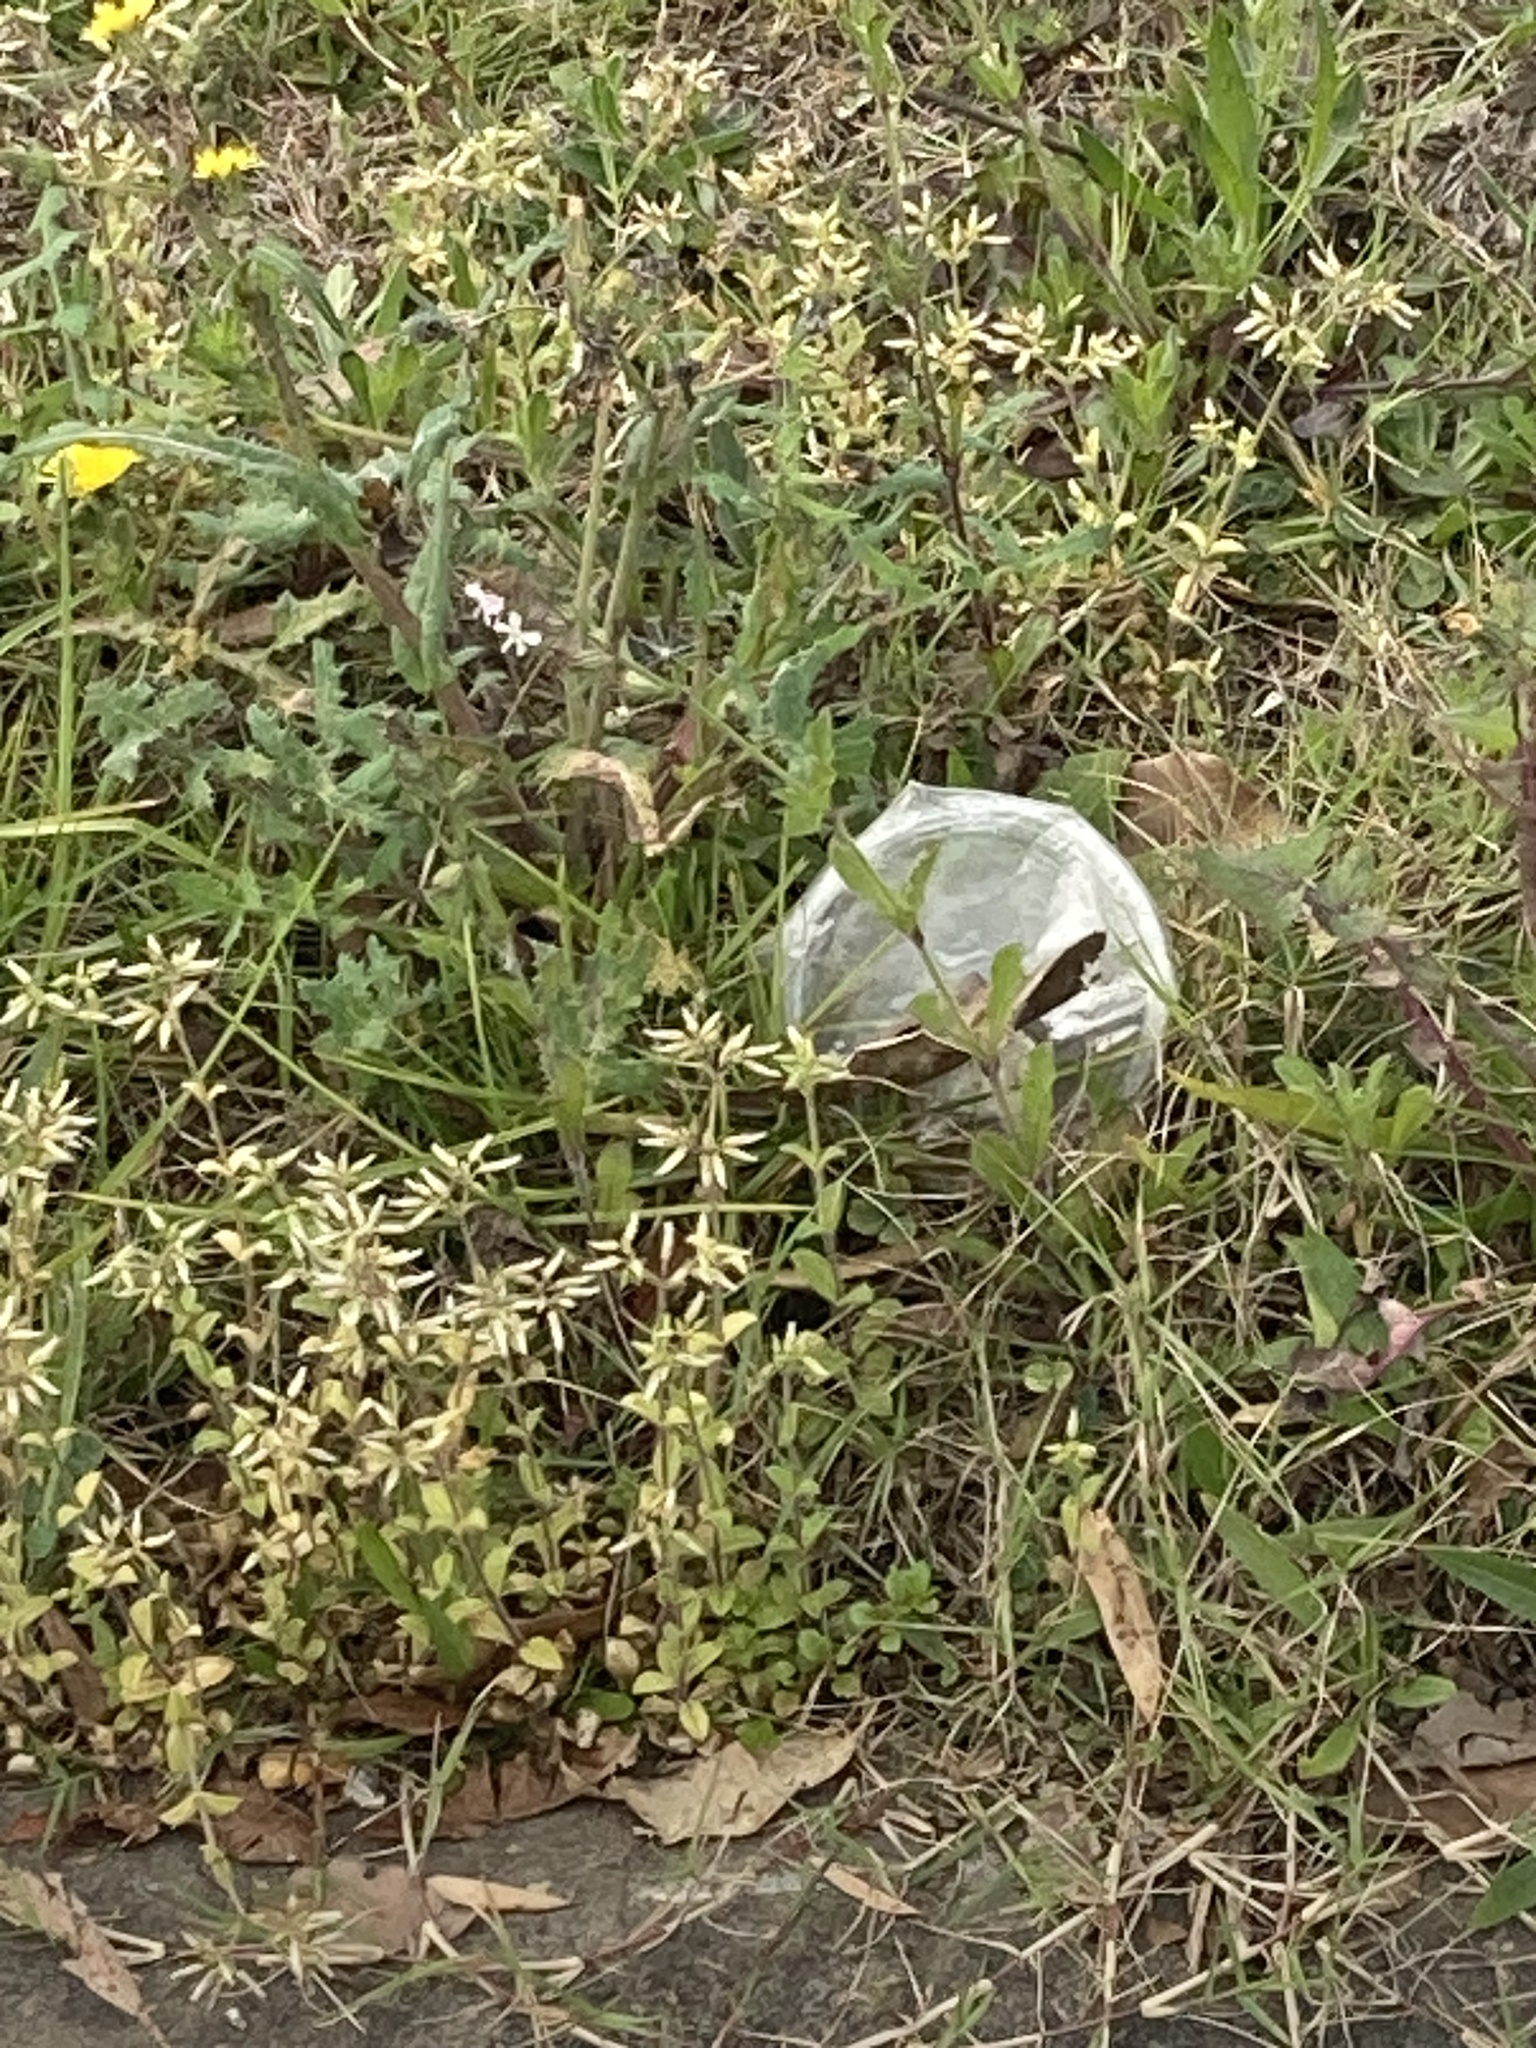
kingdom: Plantae
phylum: Tracheophyta
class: Magnoliopsida
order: Caryophyllales
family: Caryophyllaceae
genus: Silene
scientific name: Silene gallica
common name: Small-flowered catchfly
